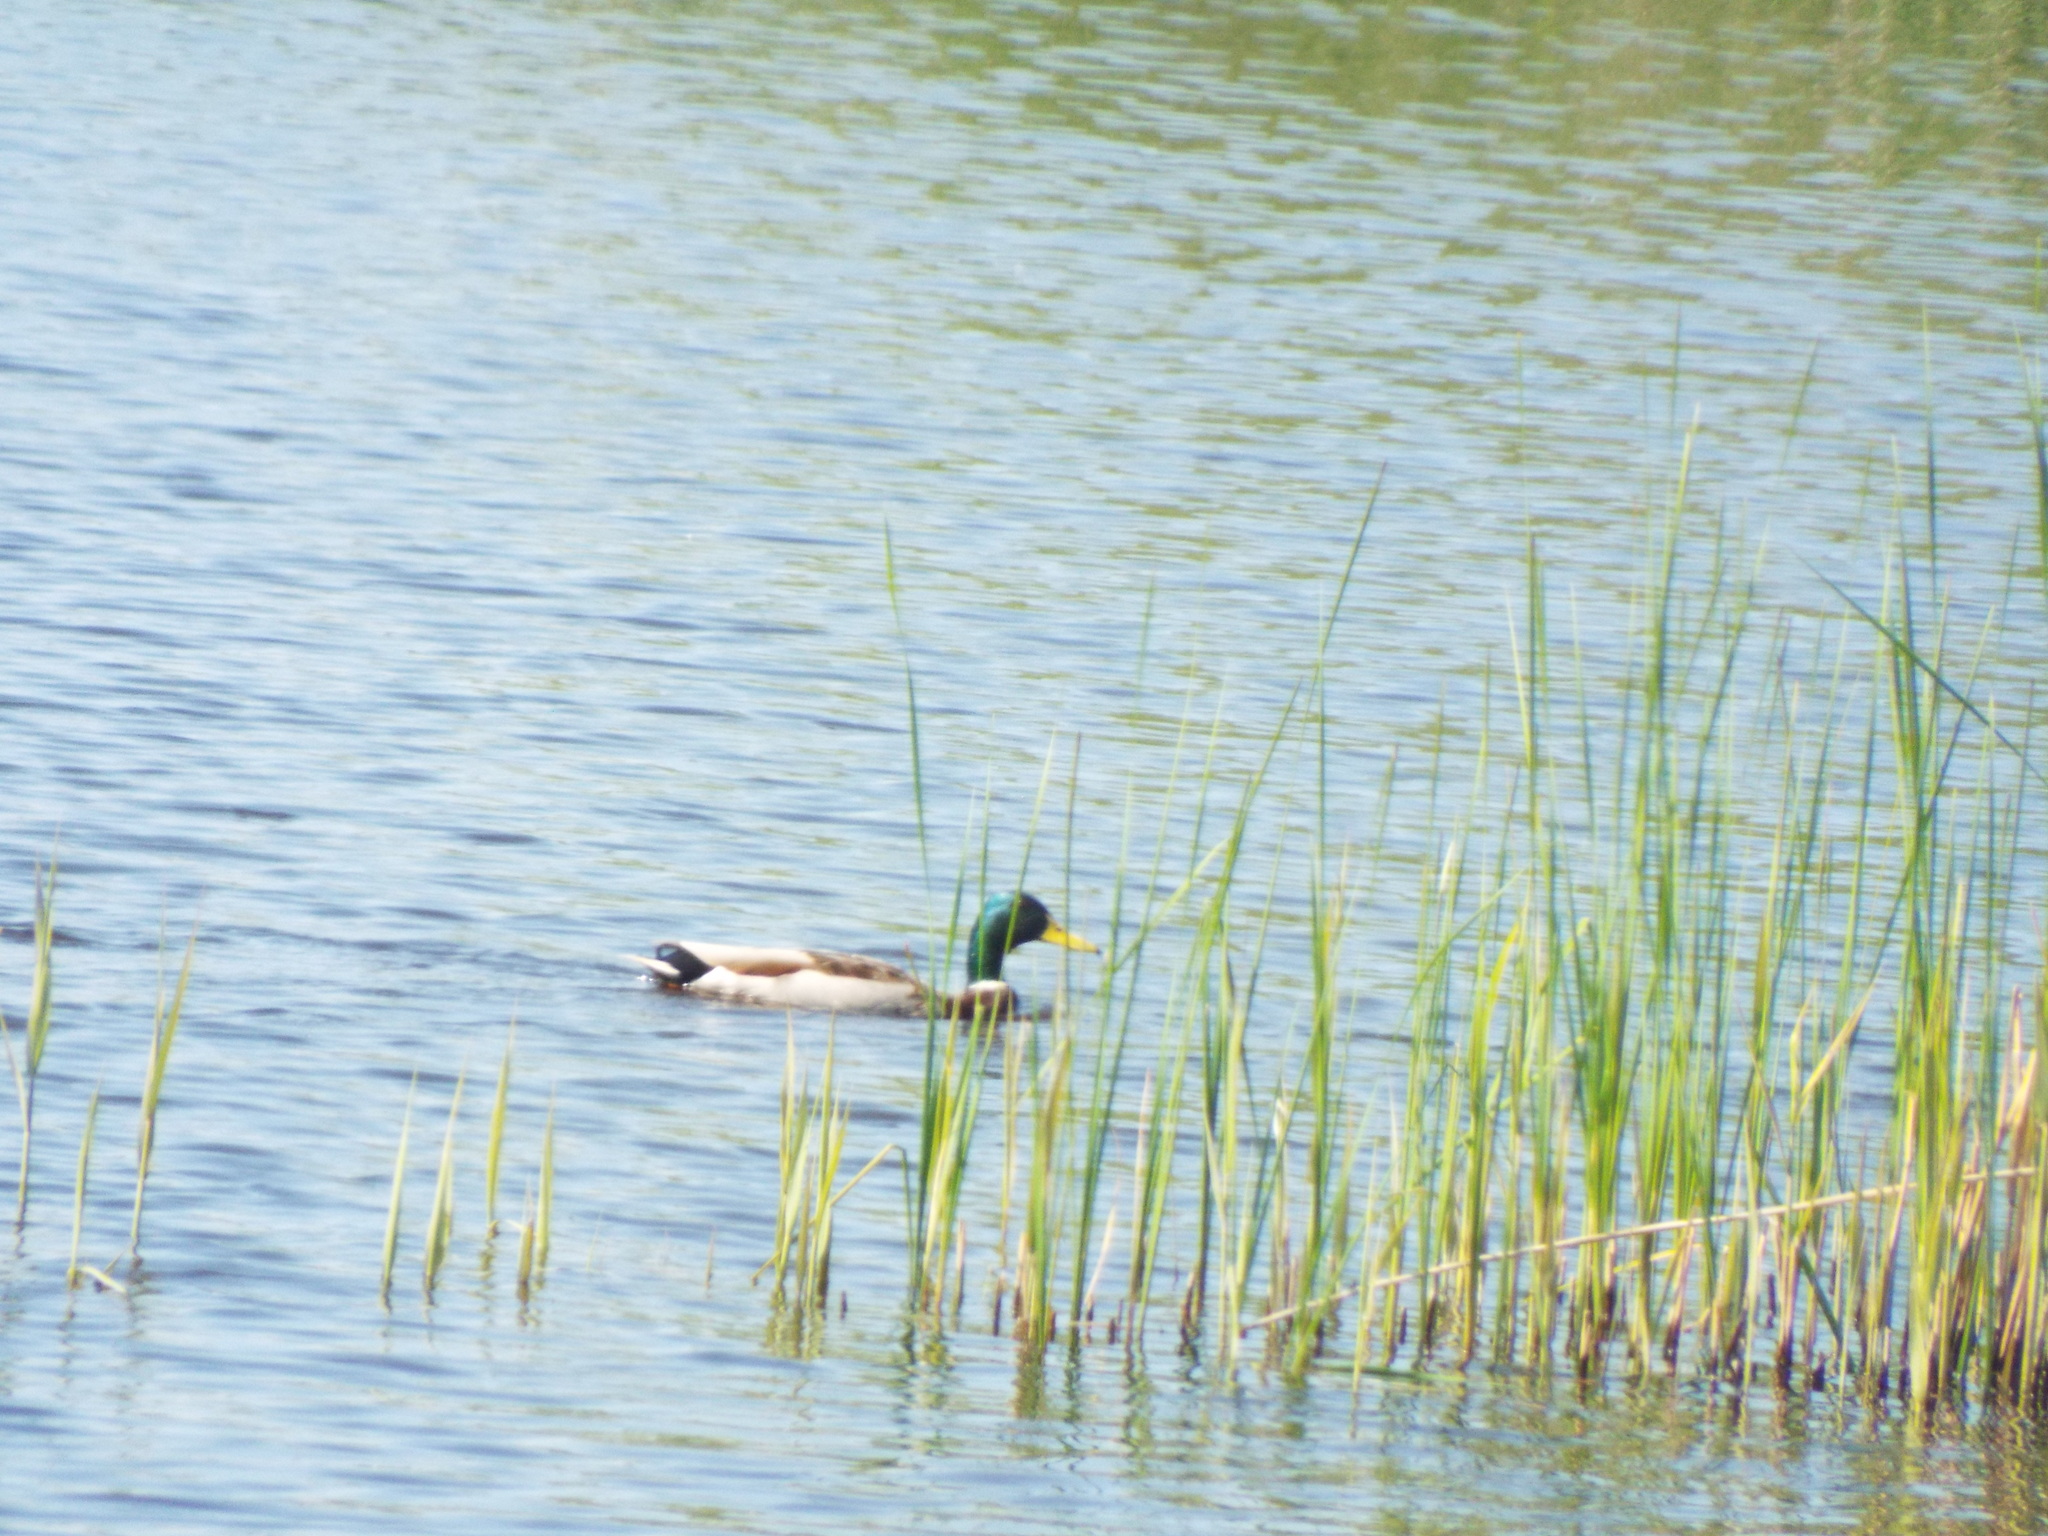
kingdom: Animalia
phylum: Chordata
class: Aves
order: Anseriformes
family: Anatidae
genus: Anas
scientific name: Anas platyrhynchos
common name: Mallard
